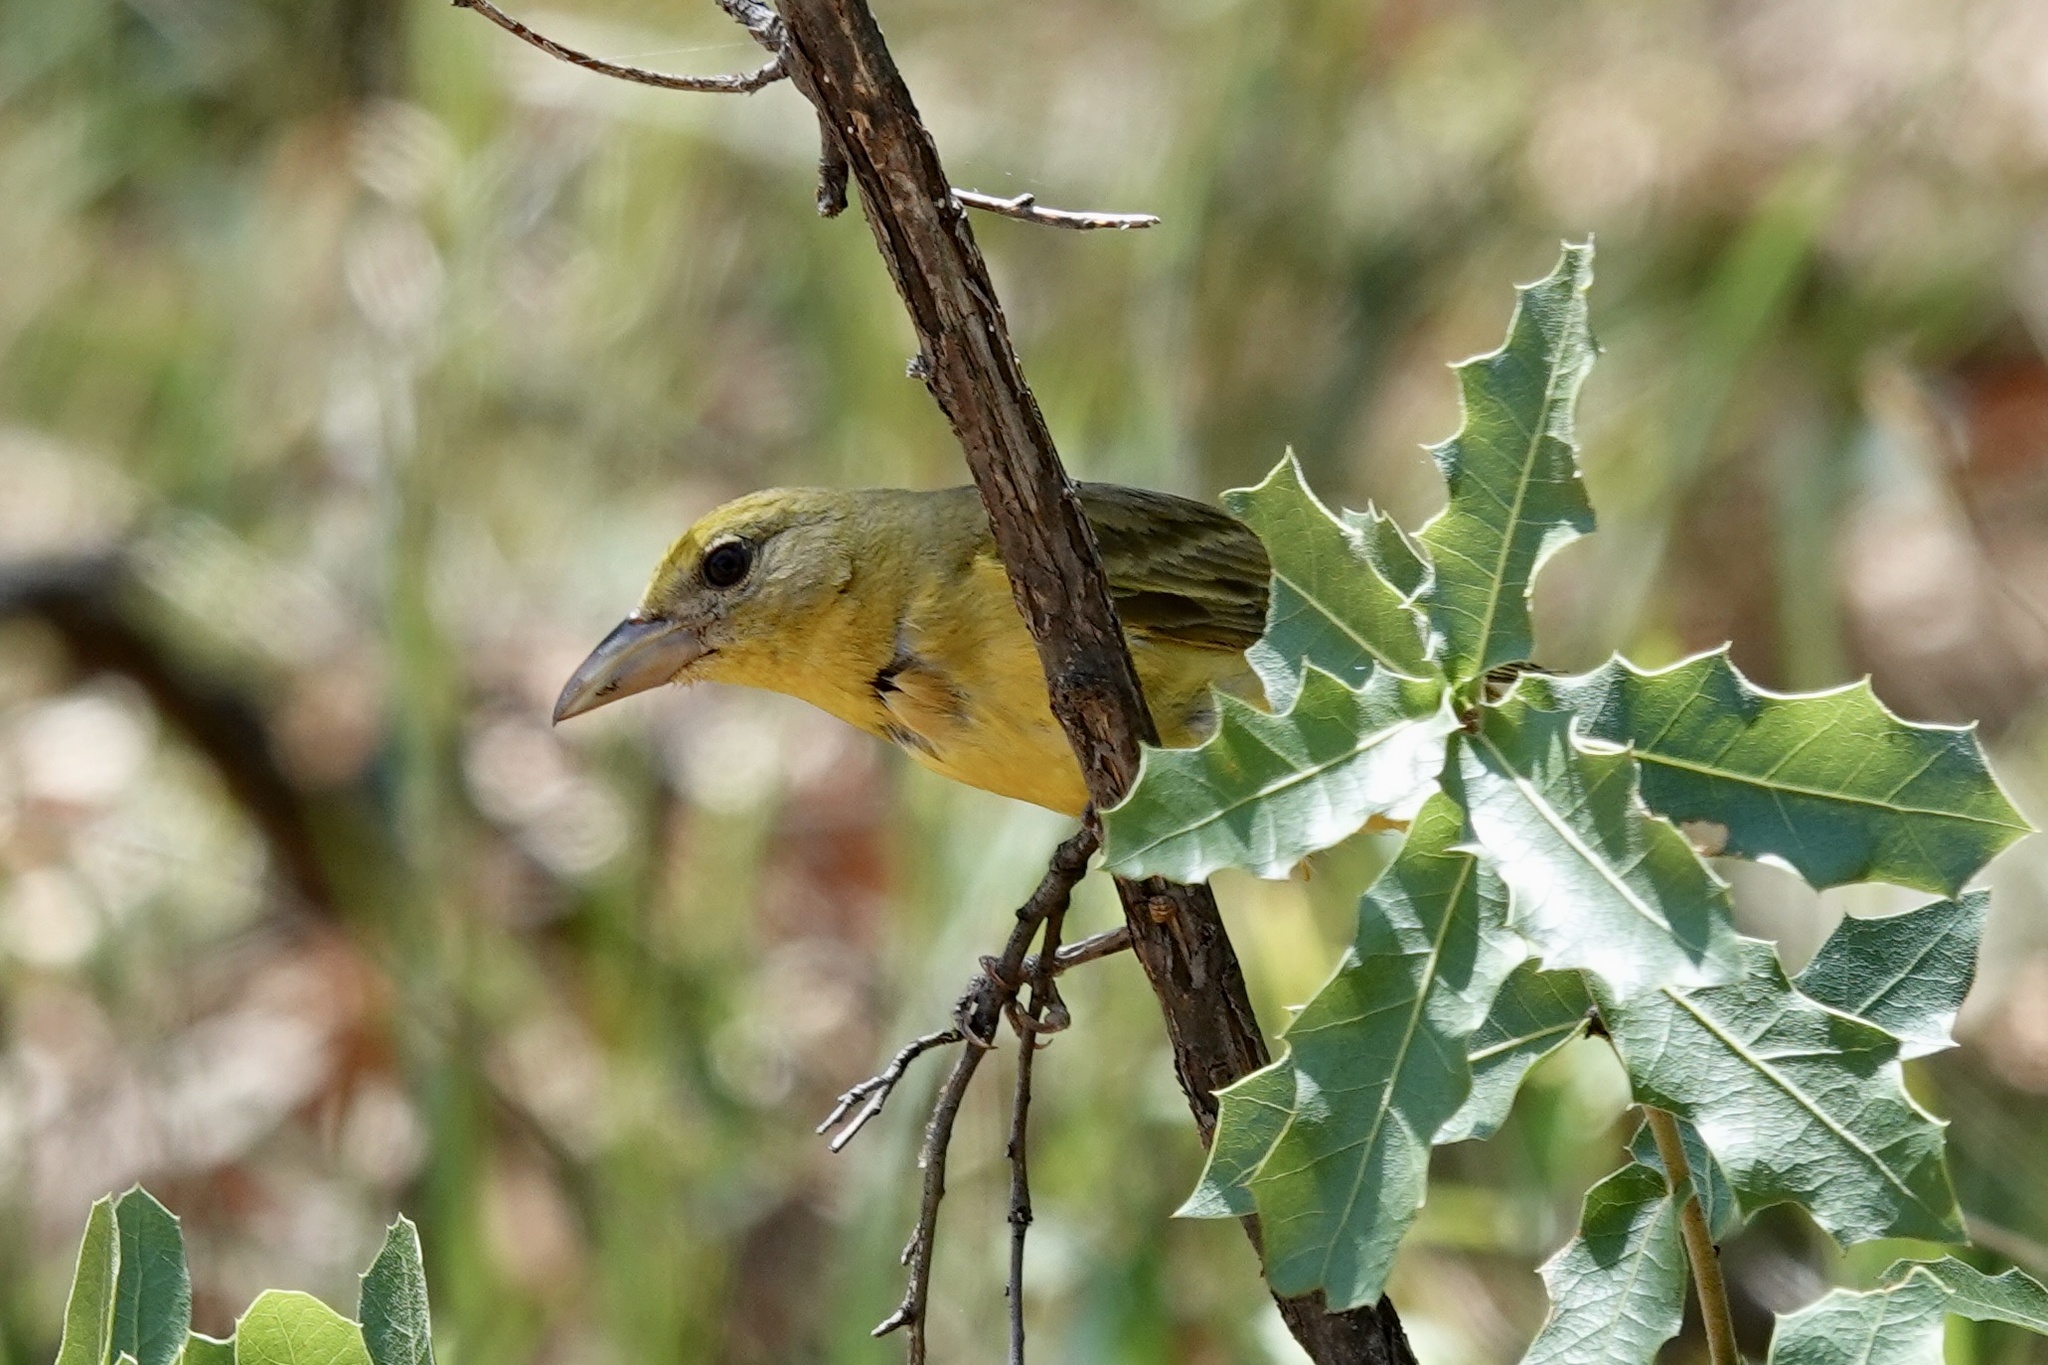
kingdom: Animalia
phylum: Chordata
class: Aves
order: Passeriformes
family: Cardinalidae
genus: Piranga
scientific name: Piranga flava
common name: Red tanager
